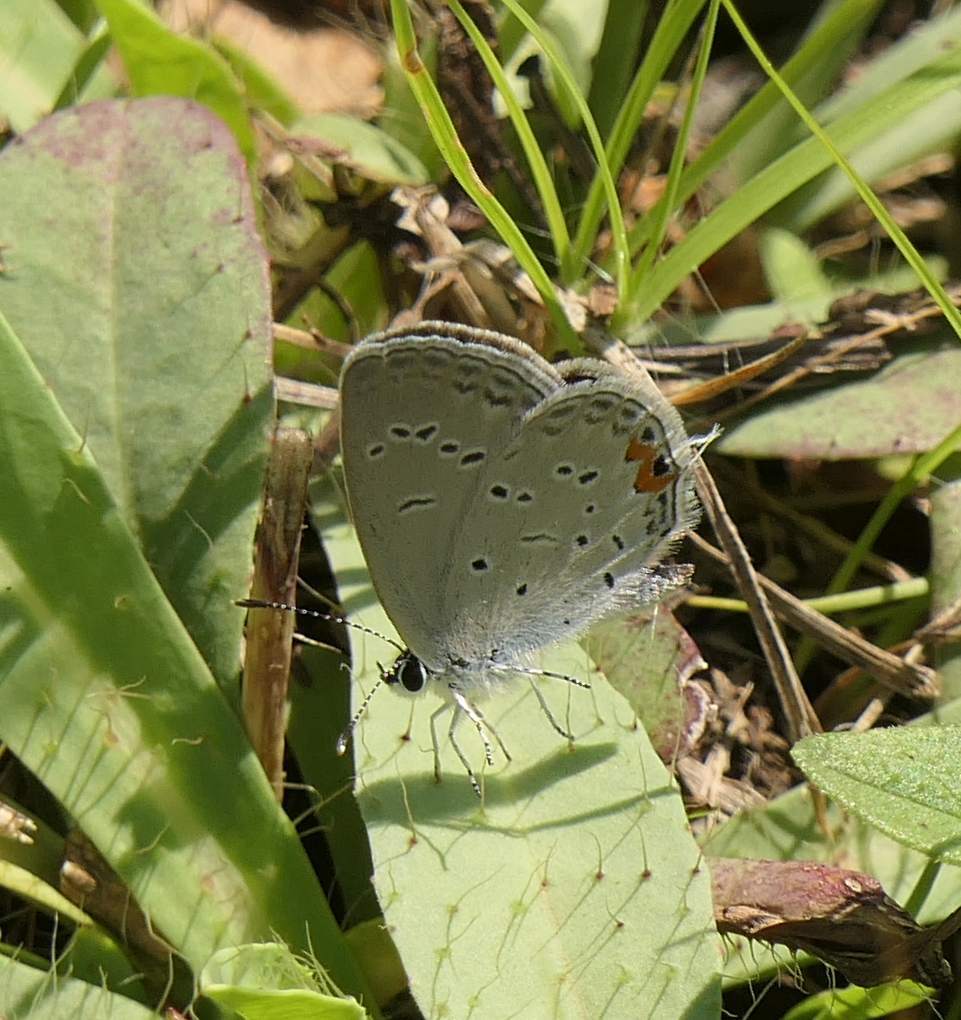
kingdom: Animalia
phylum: Arthropoda
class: Insecta
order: Lepidoptera
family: Lycaenidae
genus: Elkalyce
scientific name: Elkalyce comyntas
